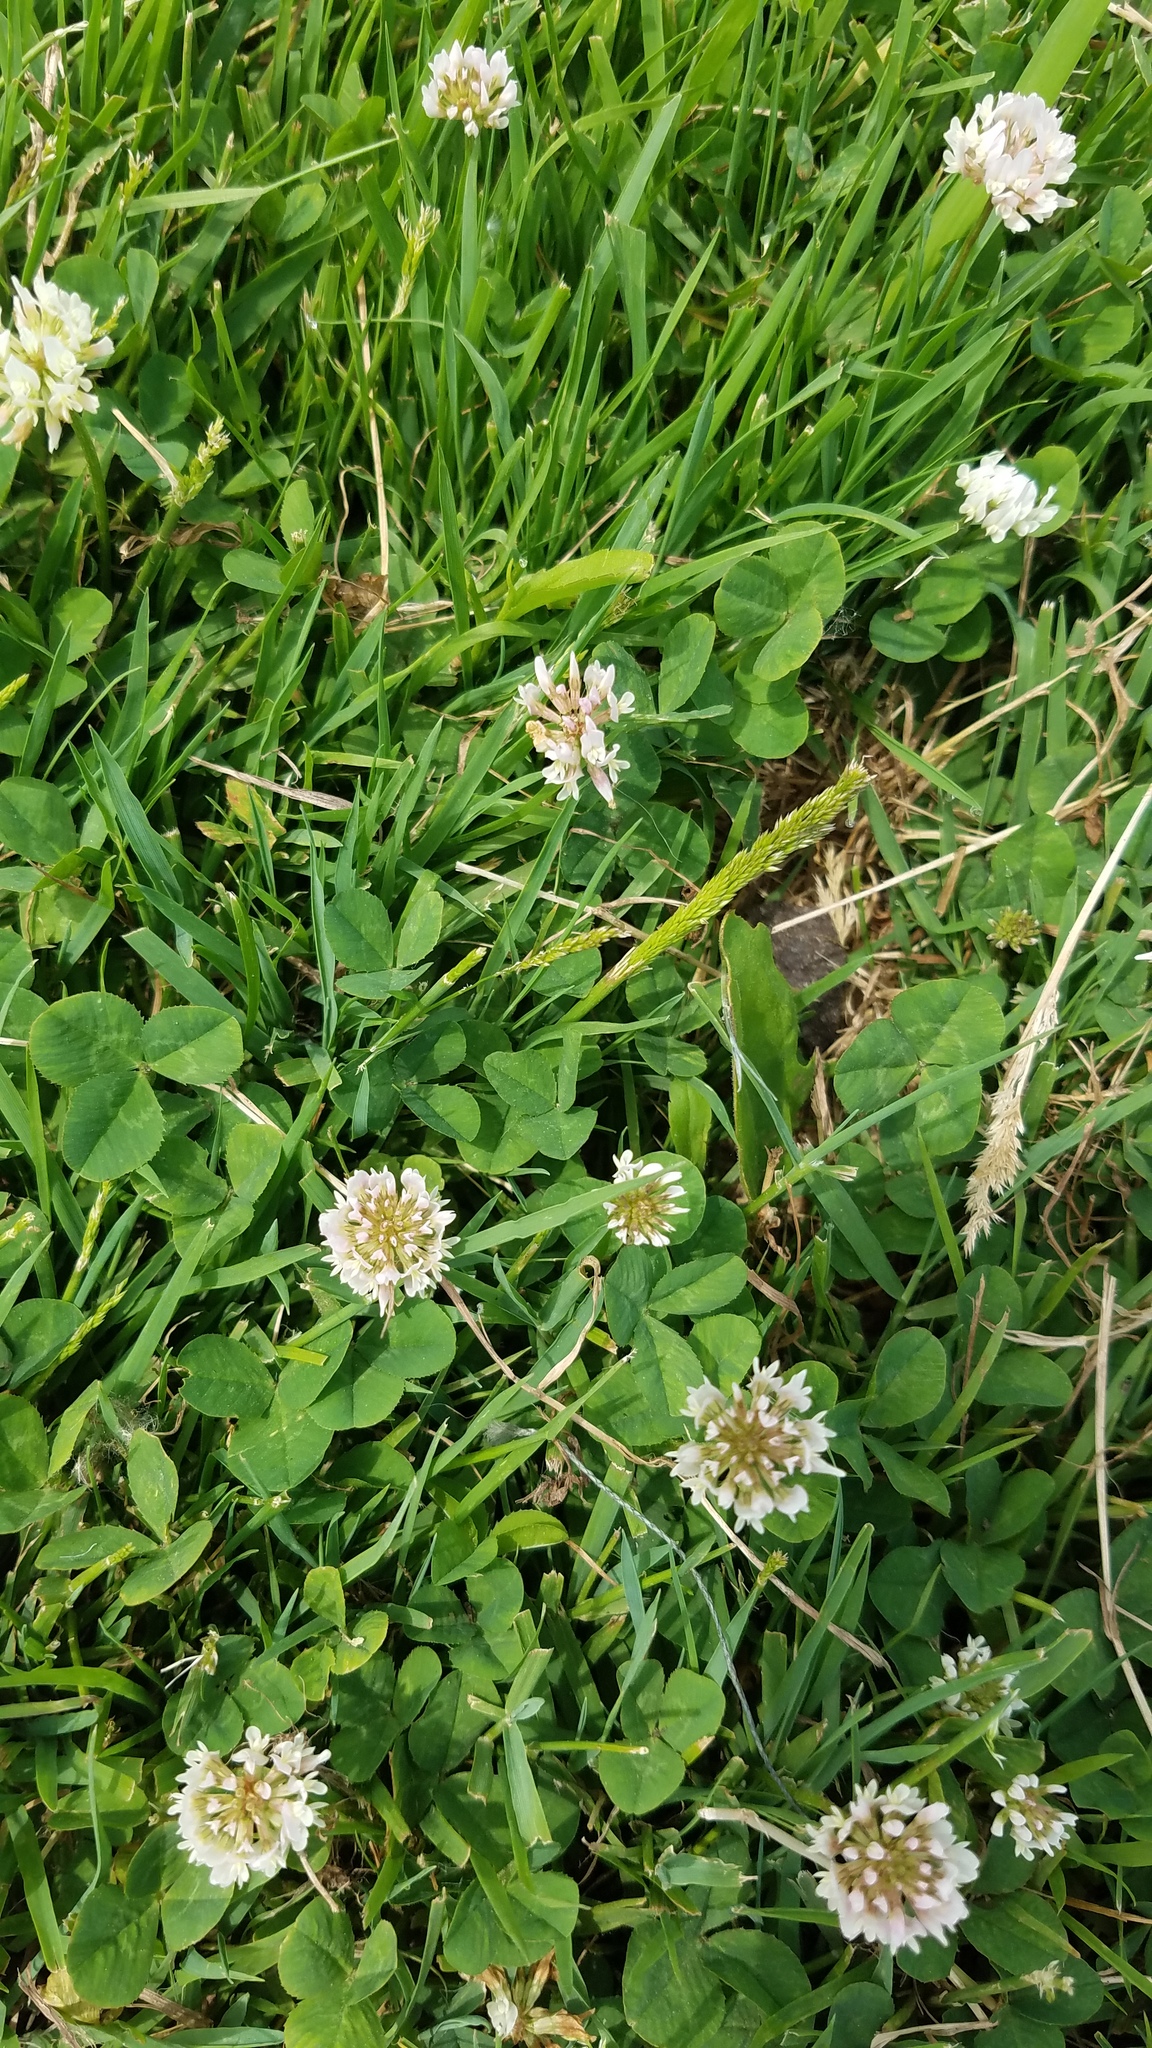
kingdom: Plantae
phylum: Tracheophyta
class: Magnoliopsida
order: Fabales
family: Fabaceae
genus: Trifolium
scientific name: Trifolium repens
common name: White clover
